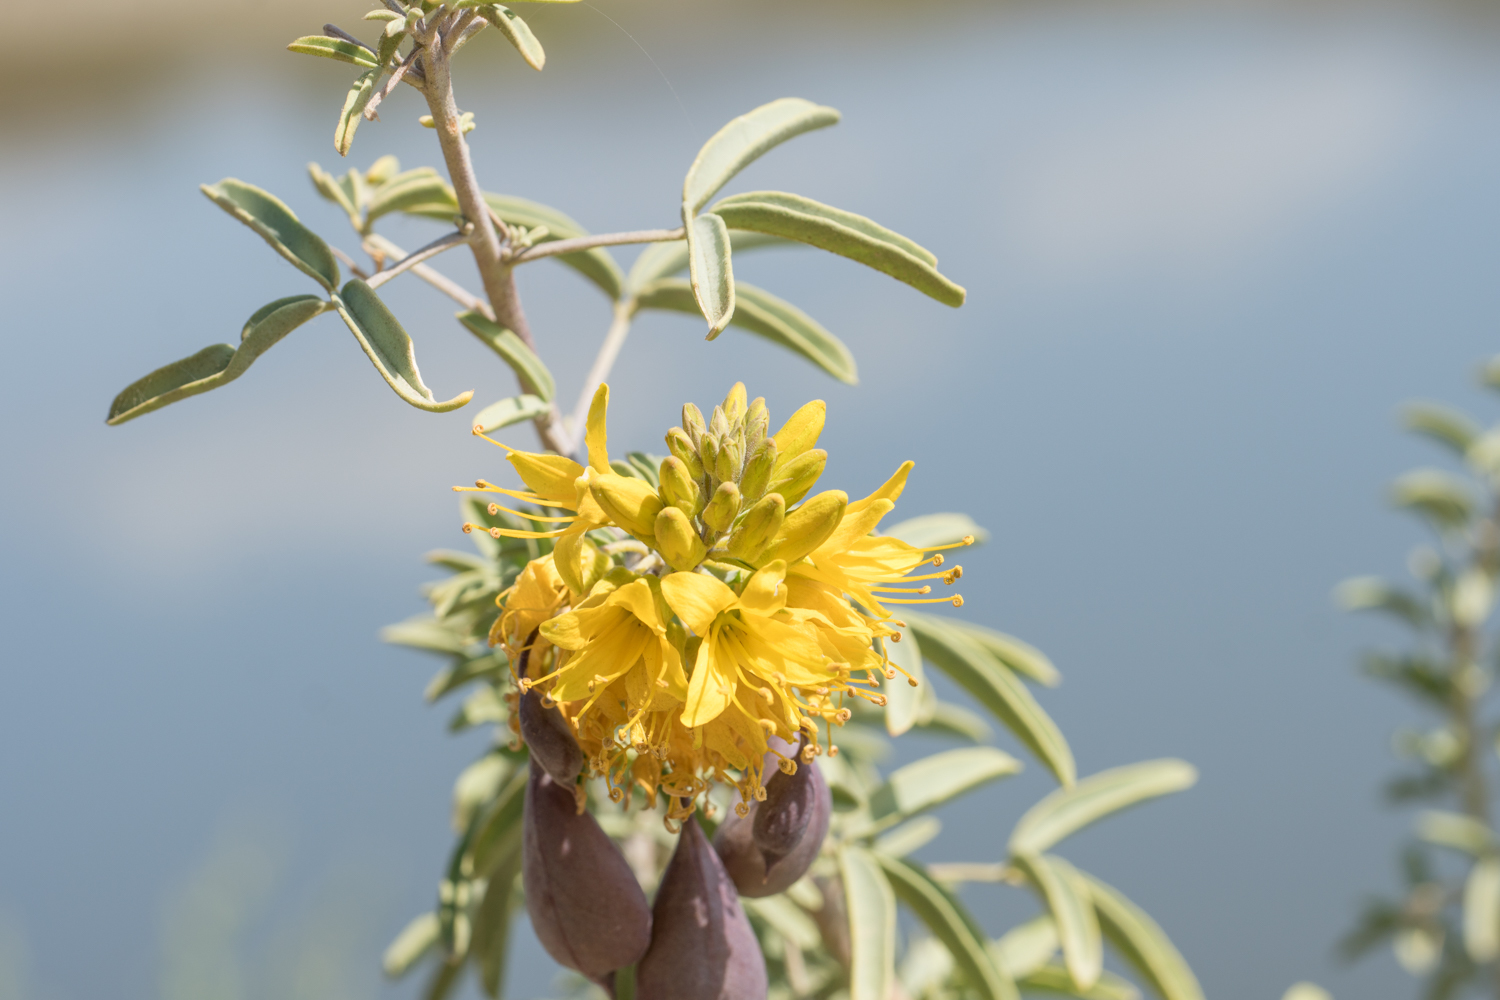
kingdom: Plantae
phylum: Tracheophyta
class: Magnoliopsida
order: Brassicales
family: Cleomaceae
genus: Cleomella
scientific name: Cleomella arborea
